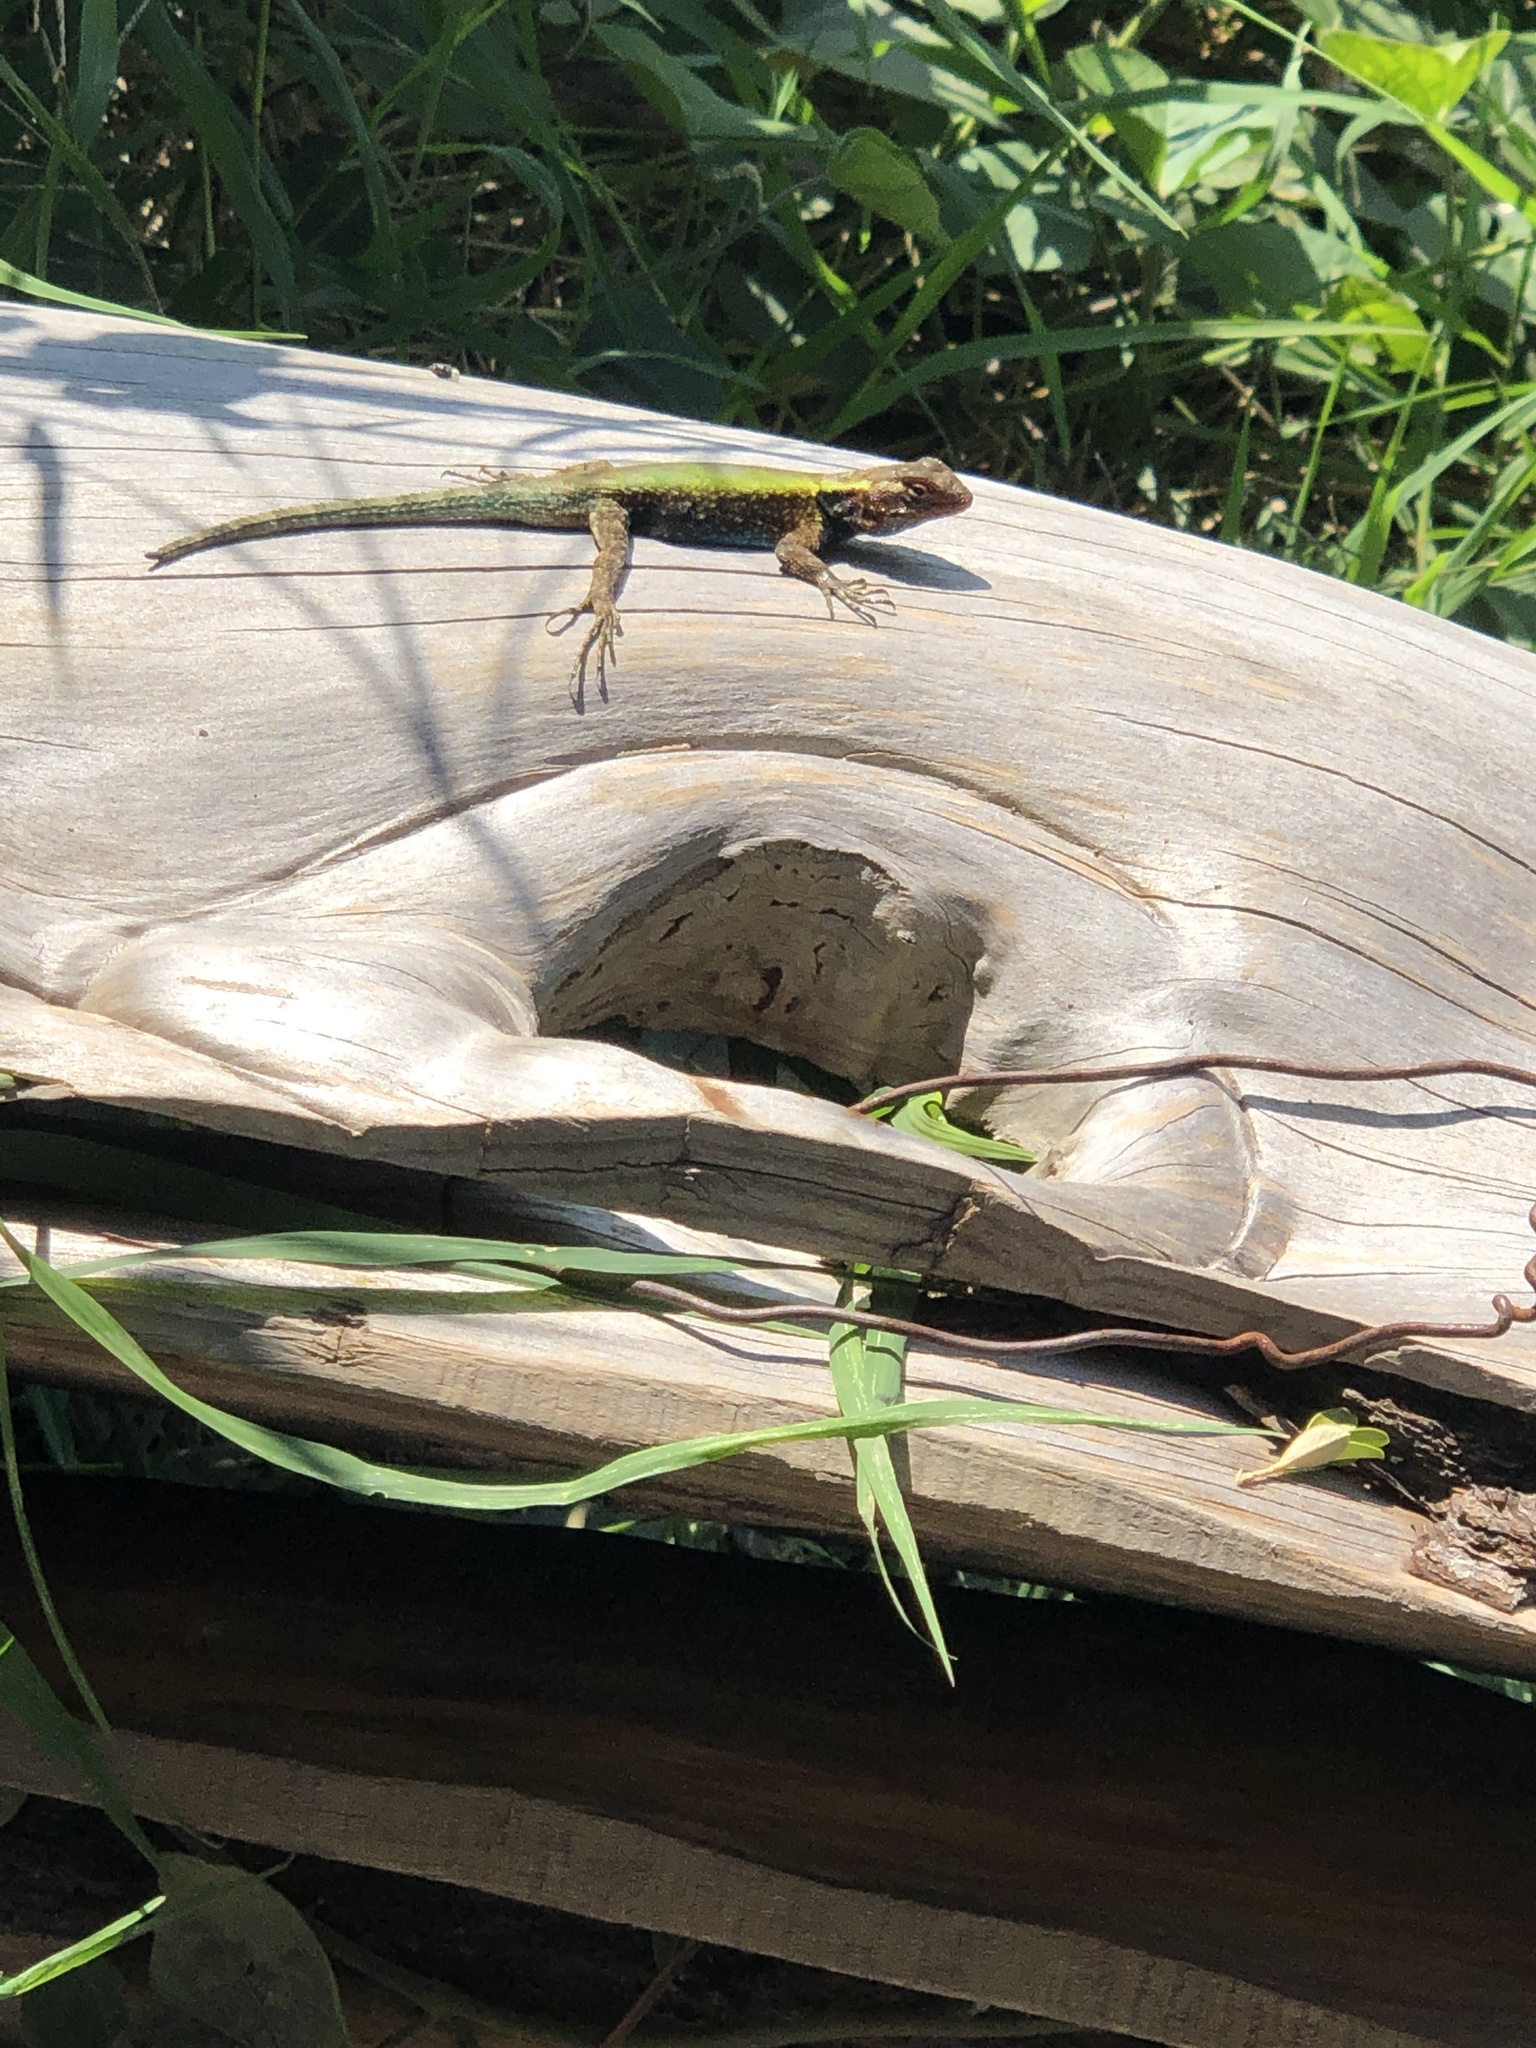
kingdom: Animalia
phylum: Chordata
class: Squamata
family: Phrynosomatidae
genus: Sceloporus
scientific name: Sceloporus grammicus
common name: Mesquite lizard
